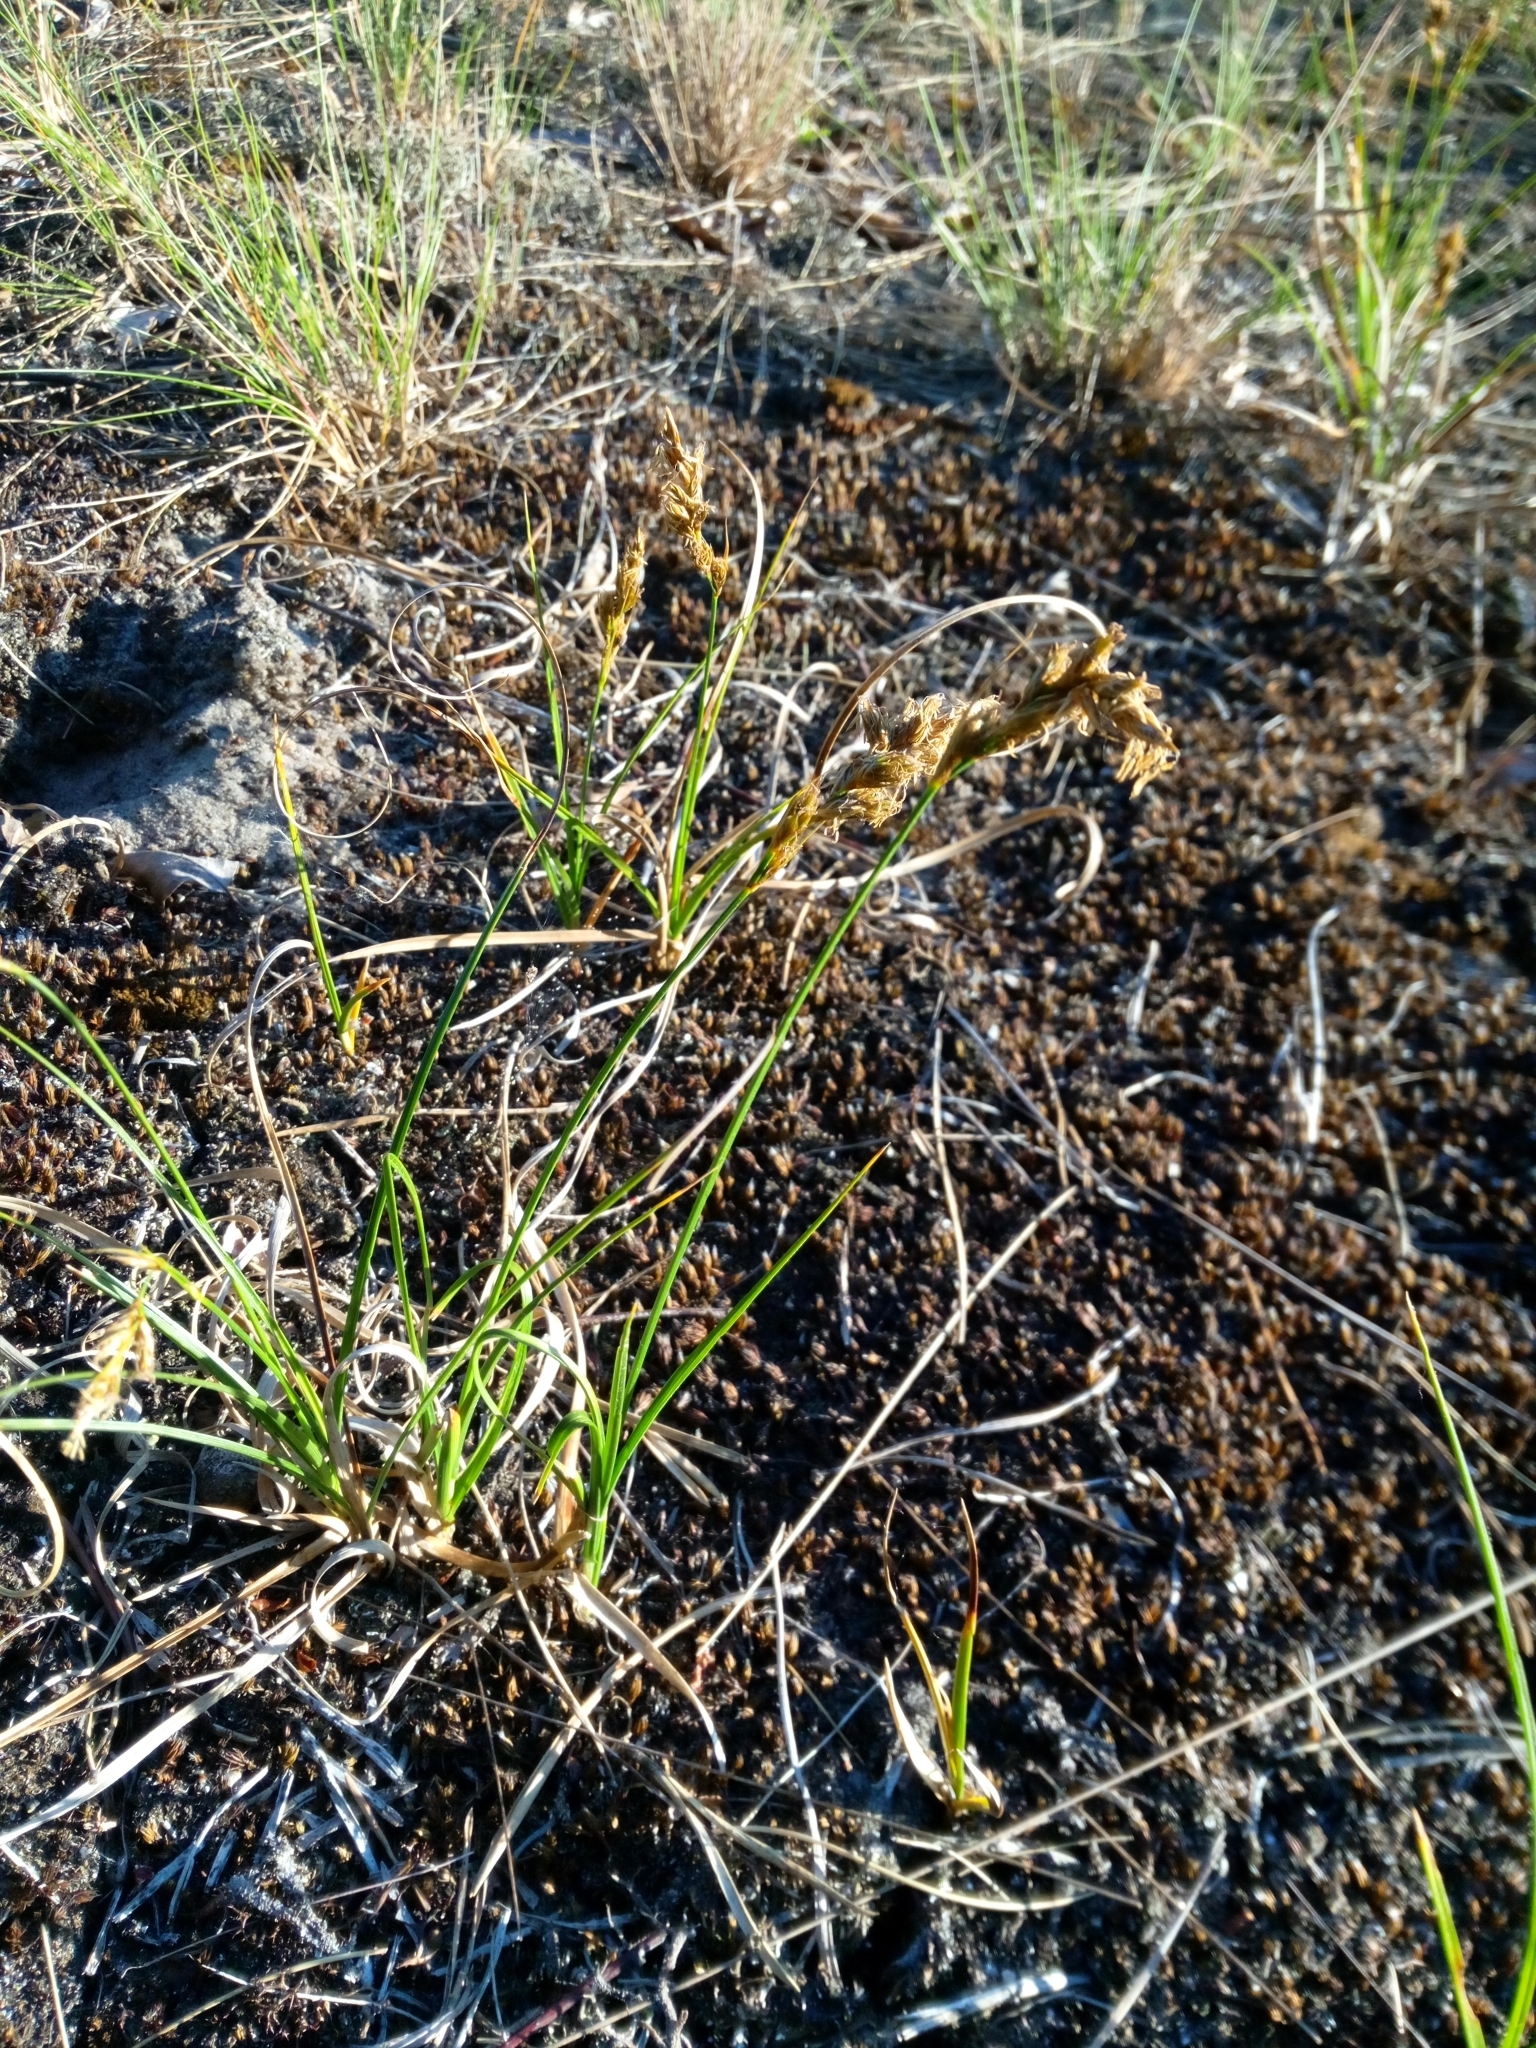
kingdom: Plantae
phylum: Tracheophyta
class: Liliopsida
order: Poales
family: Cyperaceae
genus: Carex
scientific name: Carex arenaria
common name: Sand sedge
